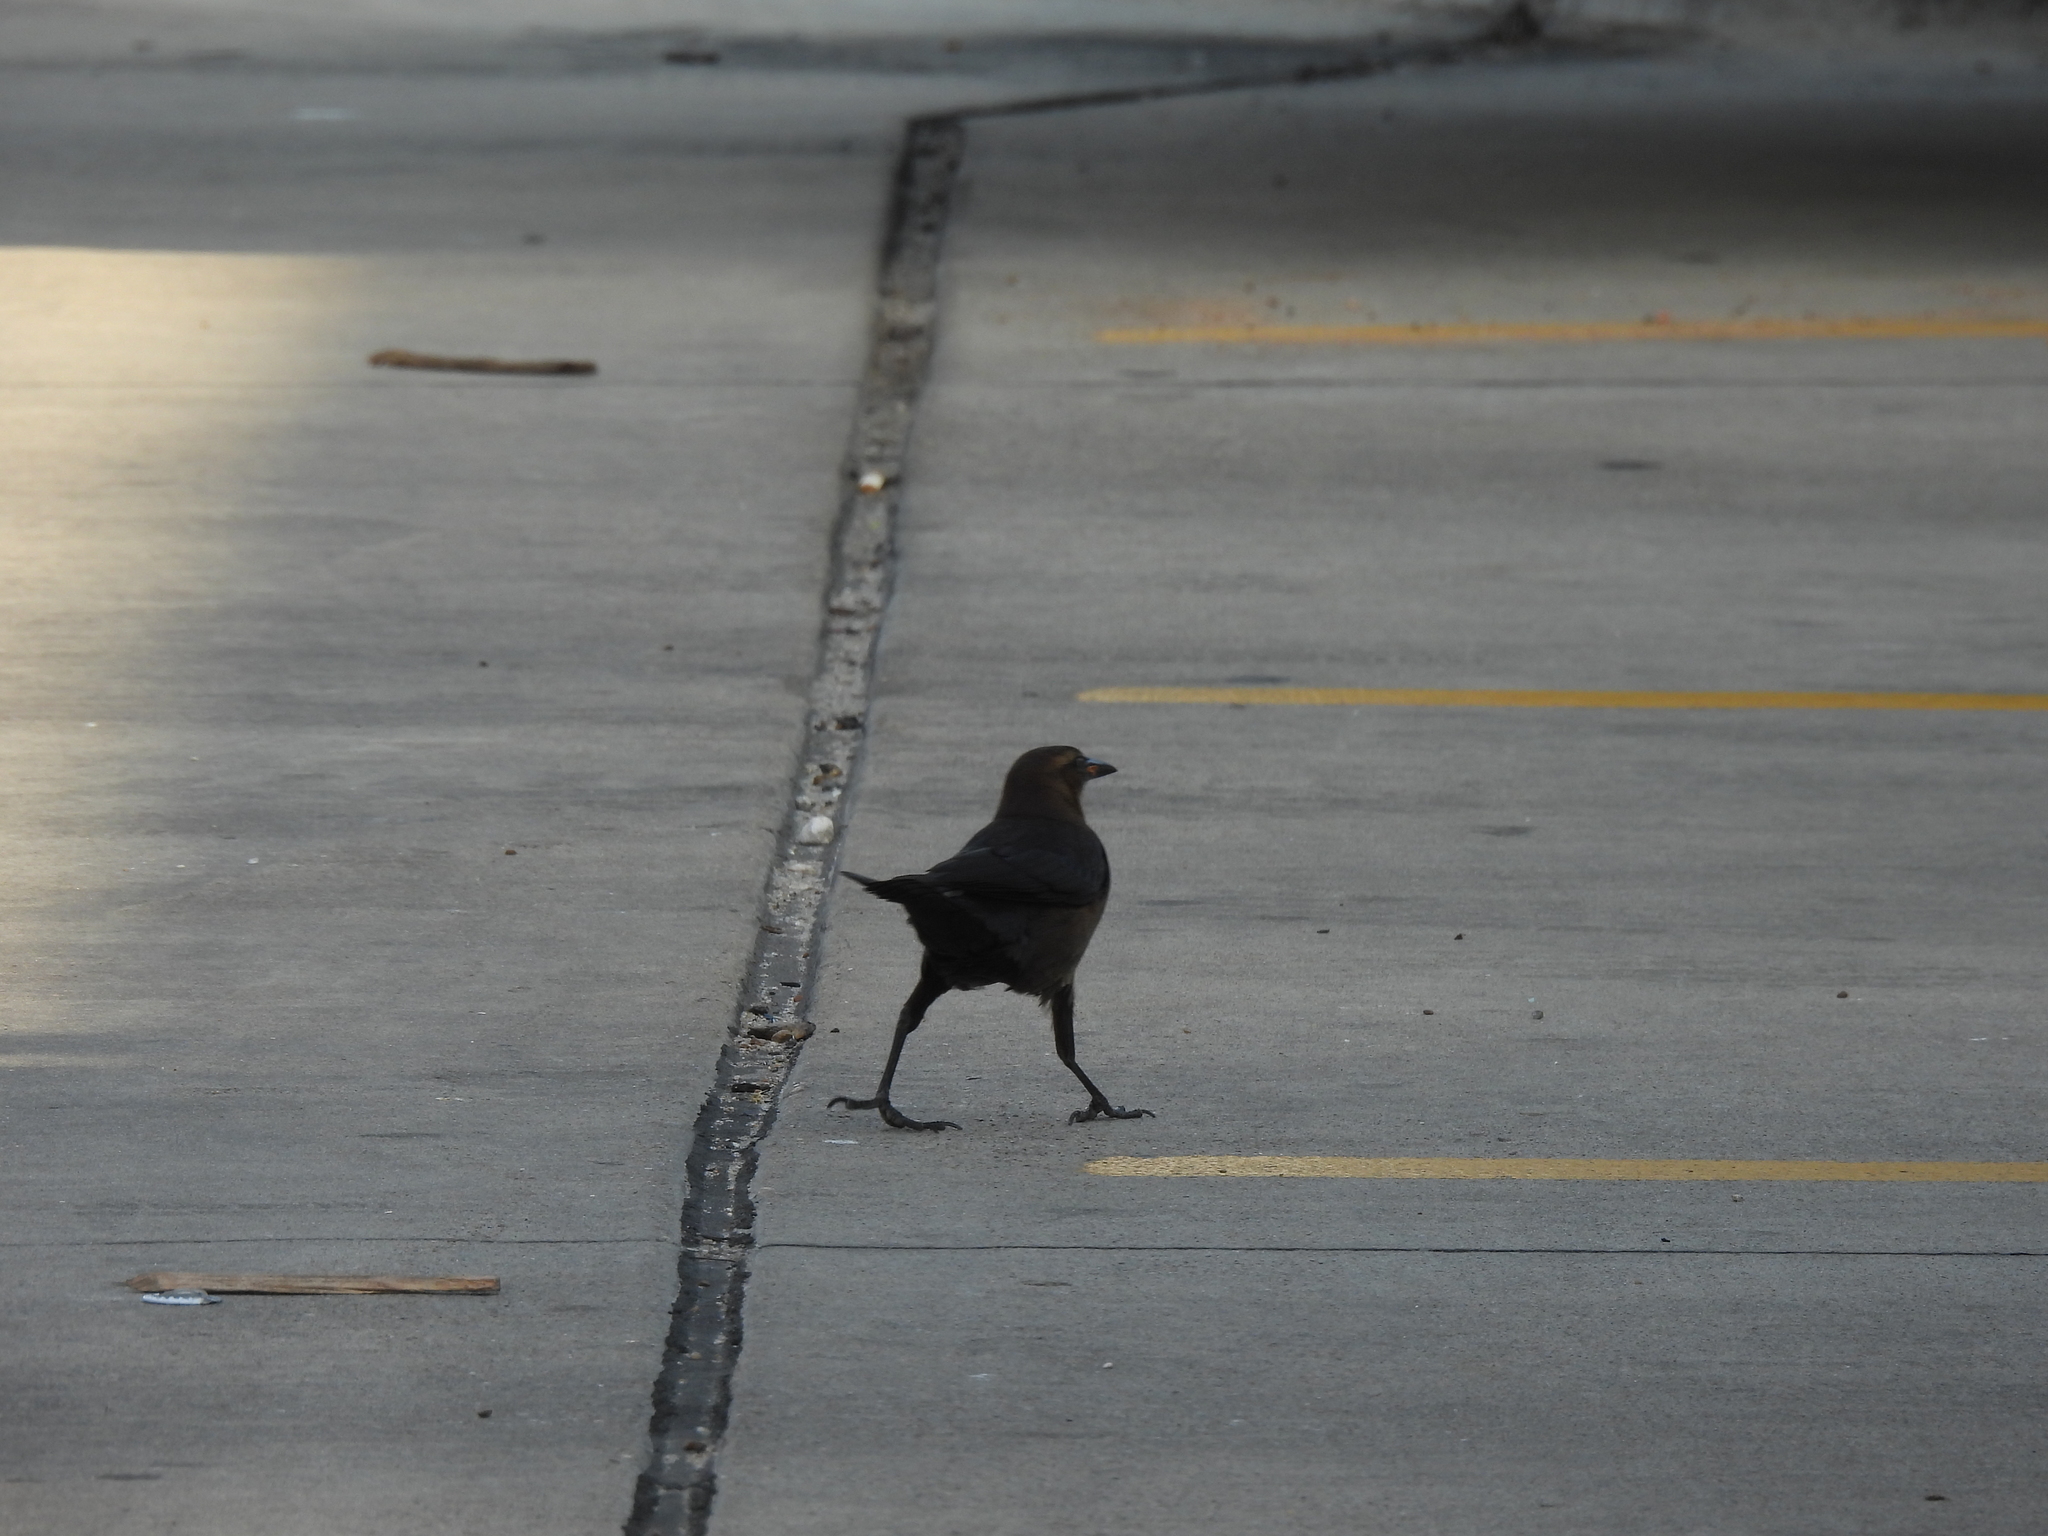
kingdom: Animalia
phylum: Chordata
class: Aves
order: Passeriformes
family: Icteridae
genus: Quiscalus
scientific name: Quiscalus mexicanus
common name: Great-tailed grackle
